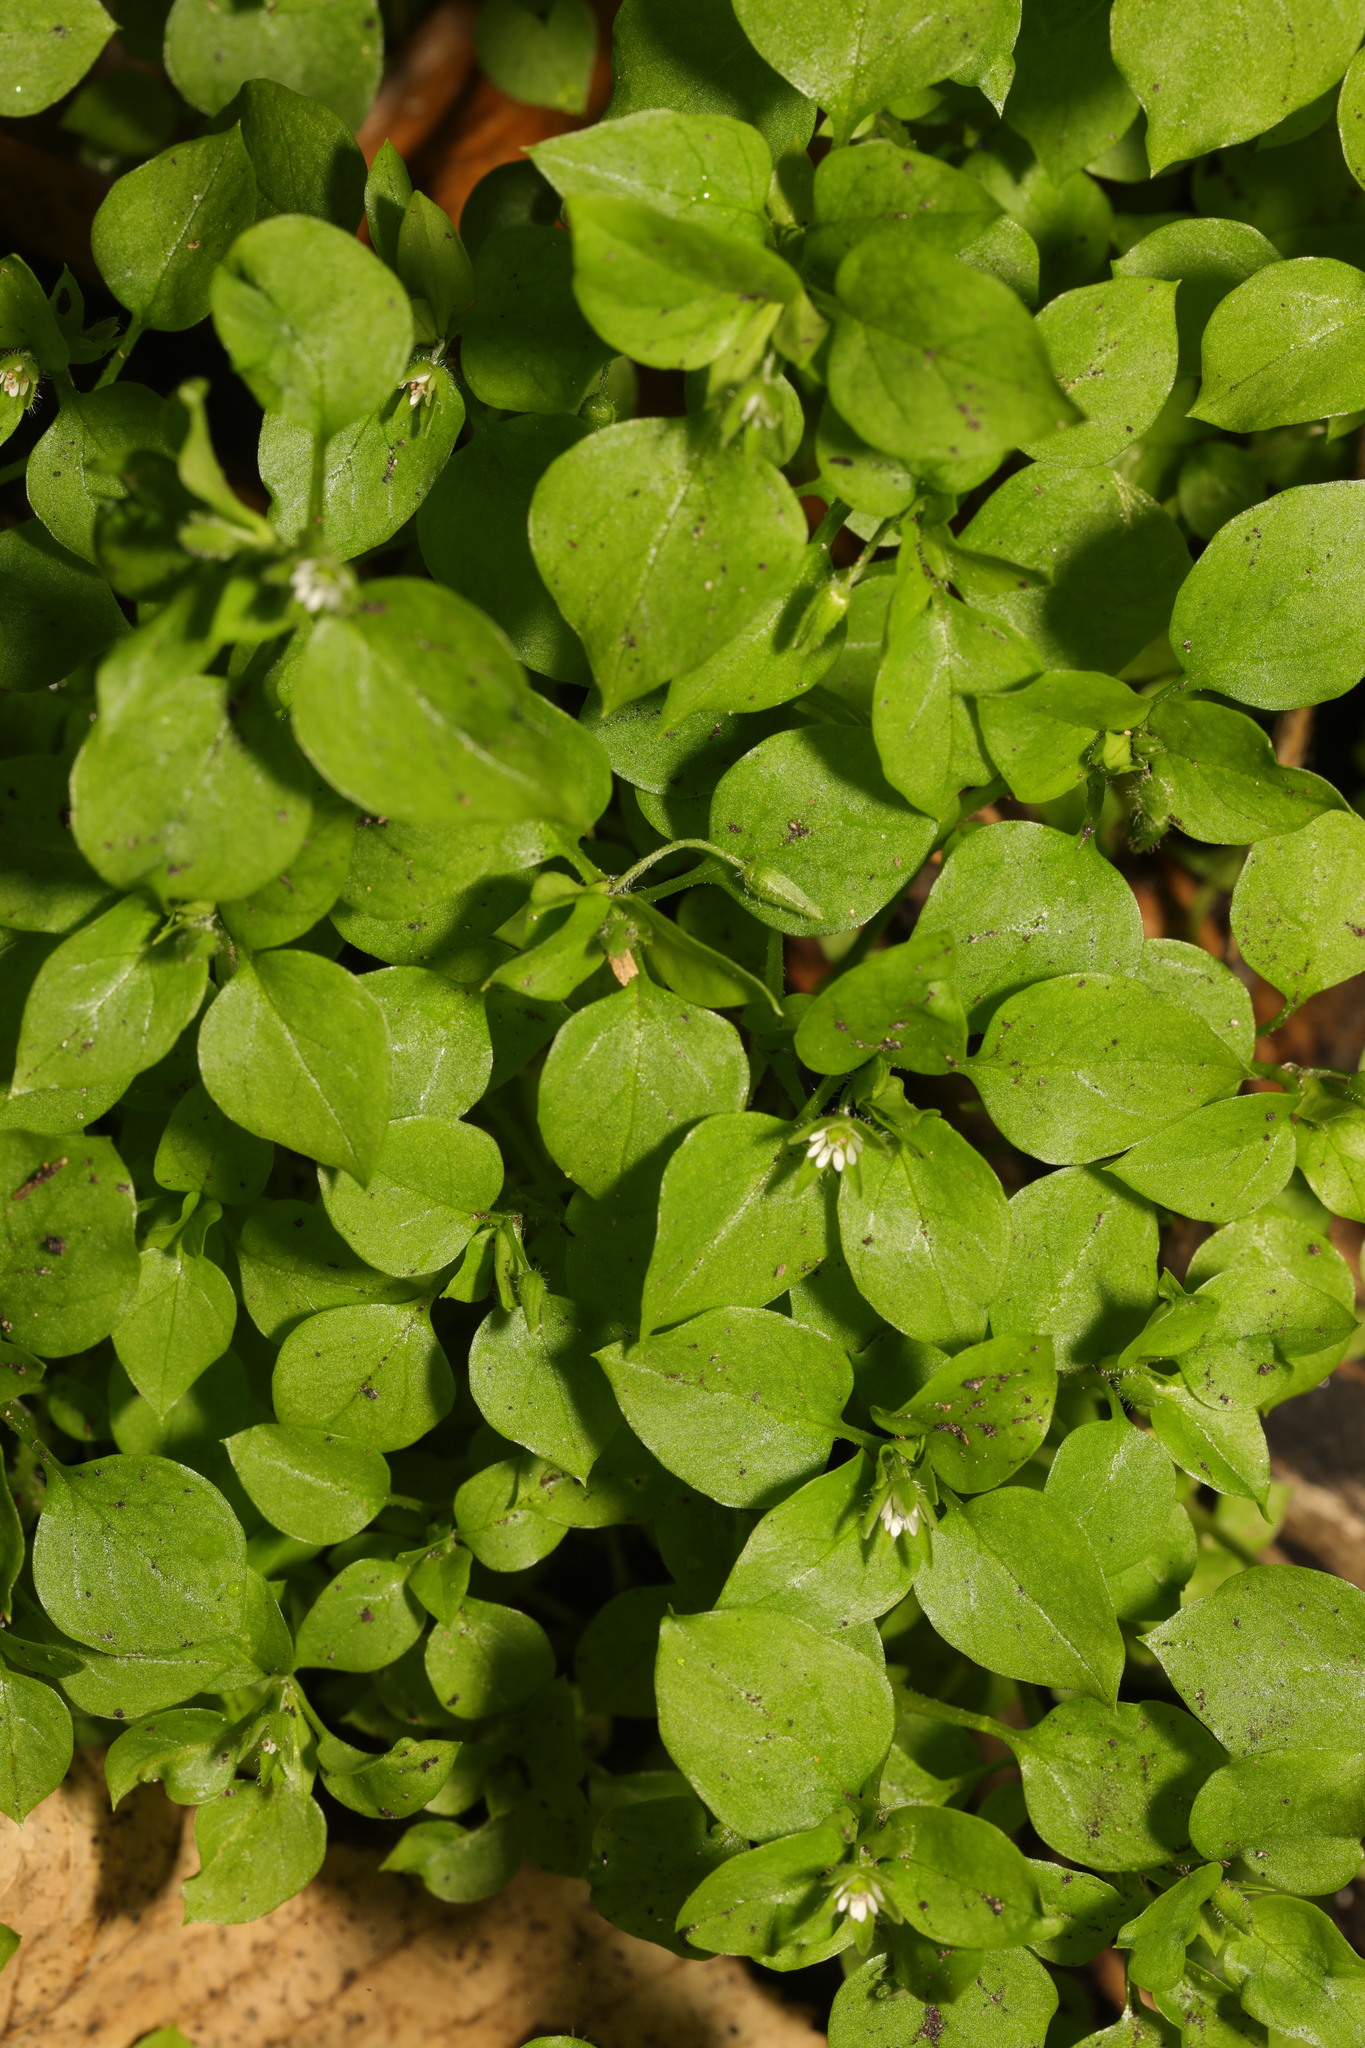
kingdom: Plantae
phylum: Tracheophyta
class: Magnoliopsida
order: Caryophyllales
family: Caryophyllaceae
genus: Stellaria
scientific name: Stellaria media
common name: Common chickweed
